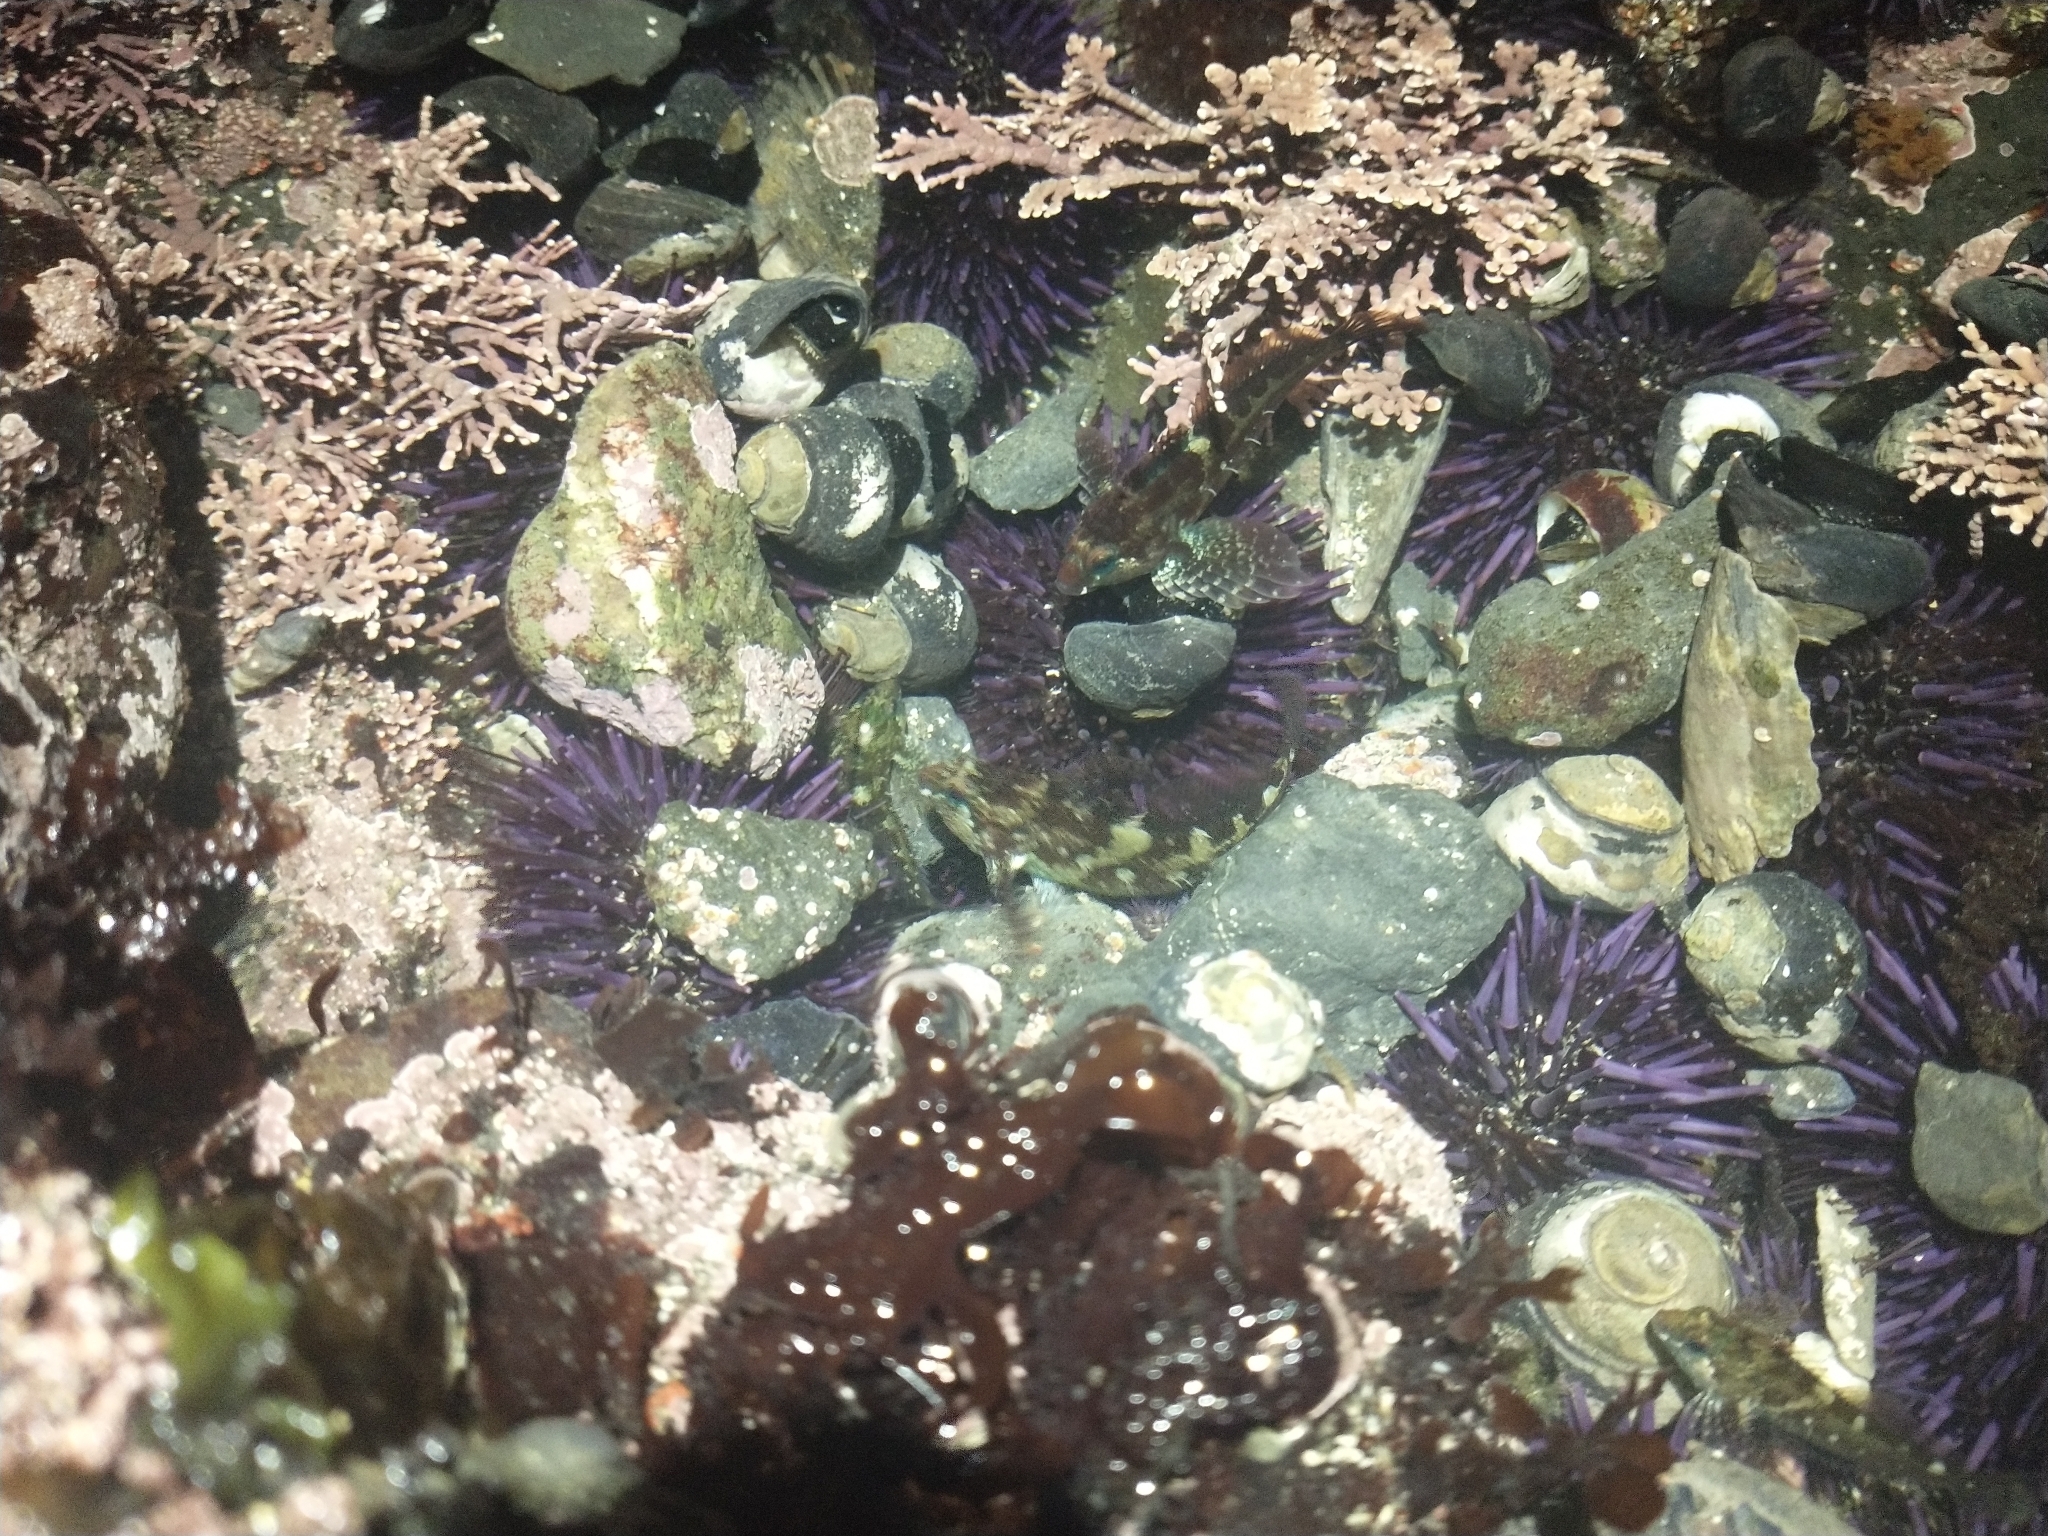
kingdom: Animalia
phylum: Mollusca
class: Gastropoda
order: Trochida
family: Tegulidae
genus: Tegula
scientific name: Tegula funebralis
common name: Black tegula
